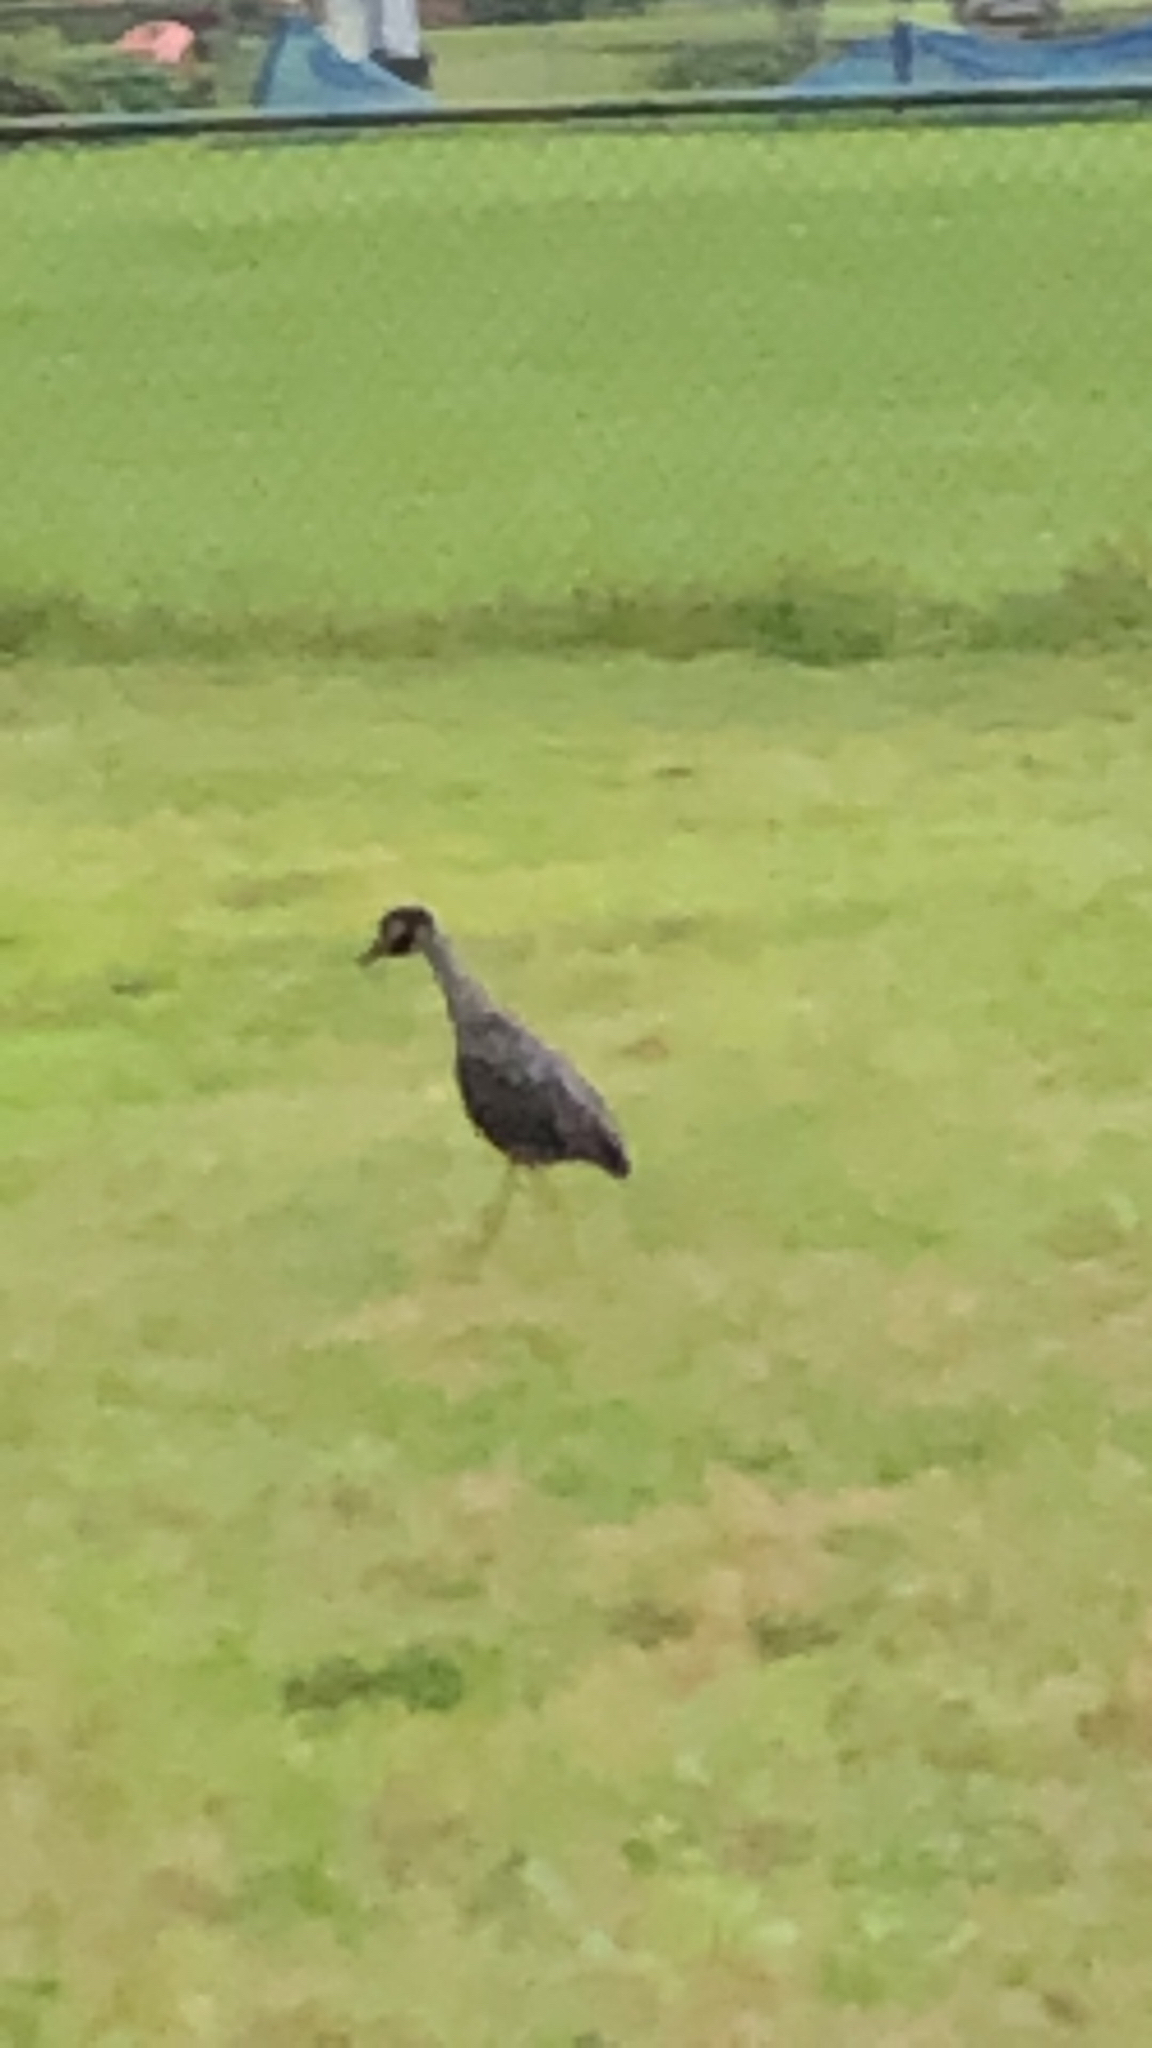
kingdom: Animalia
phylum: Chordata
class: Aves
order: Pelecaniformes
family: Ardeidae
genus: Nyctanassa
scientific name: Nyctanassa violacea
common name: Yellow-crowned night heron
